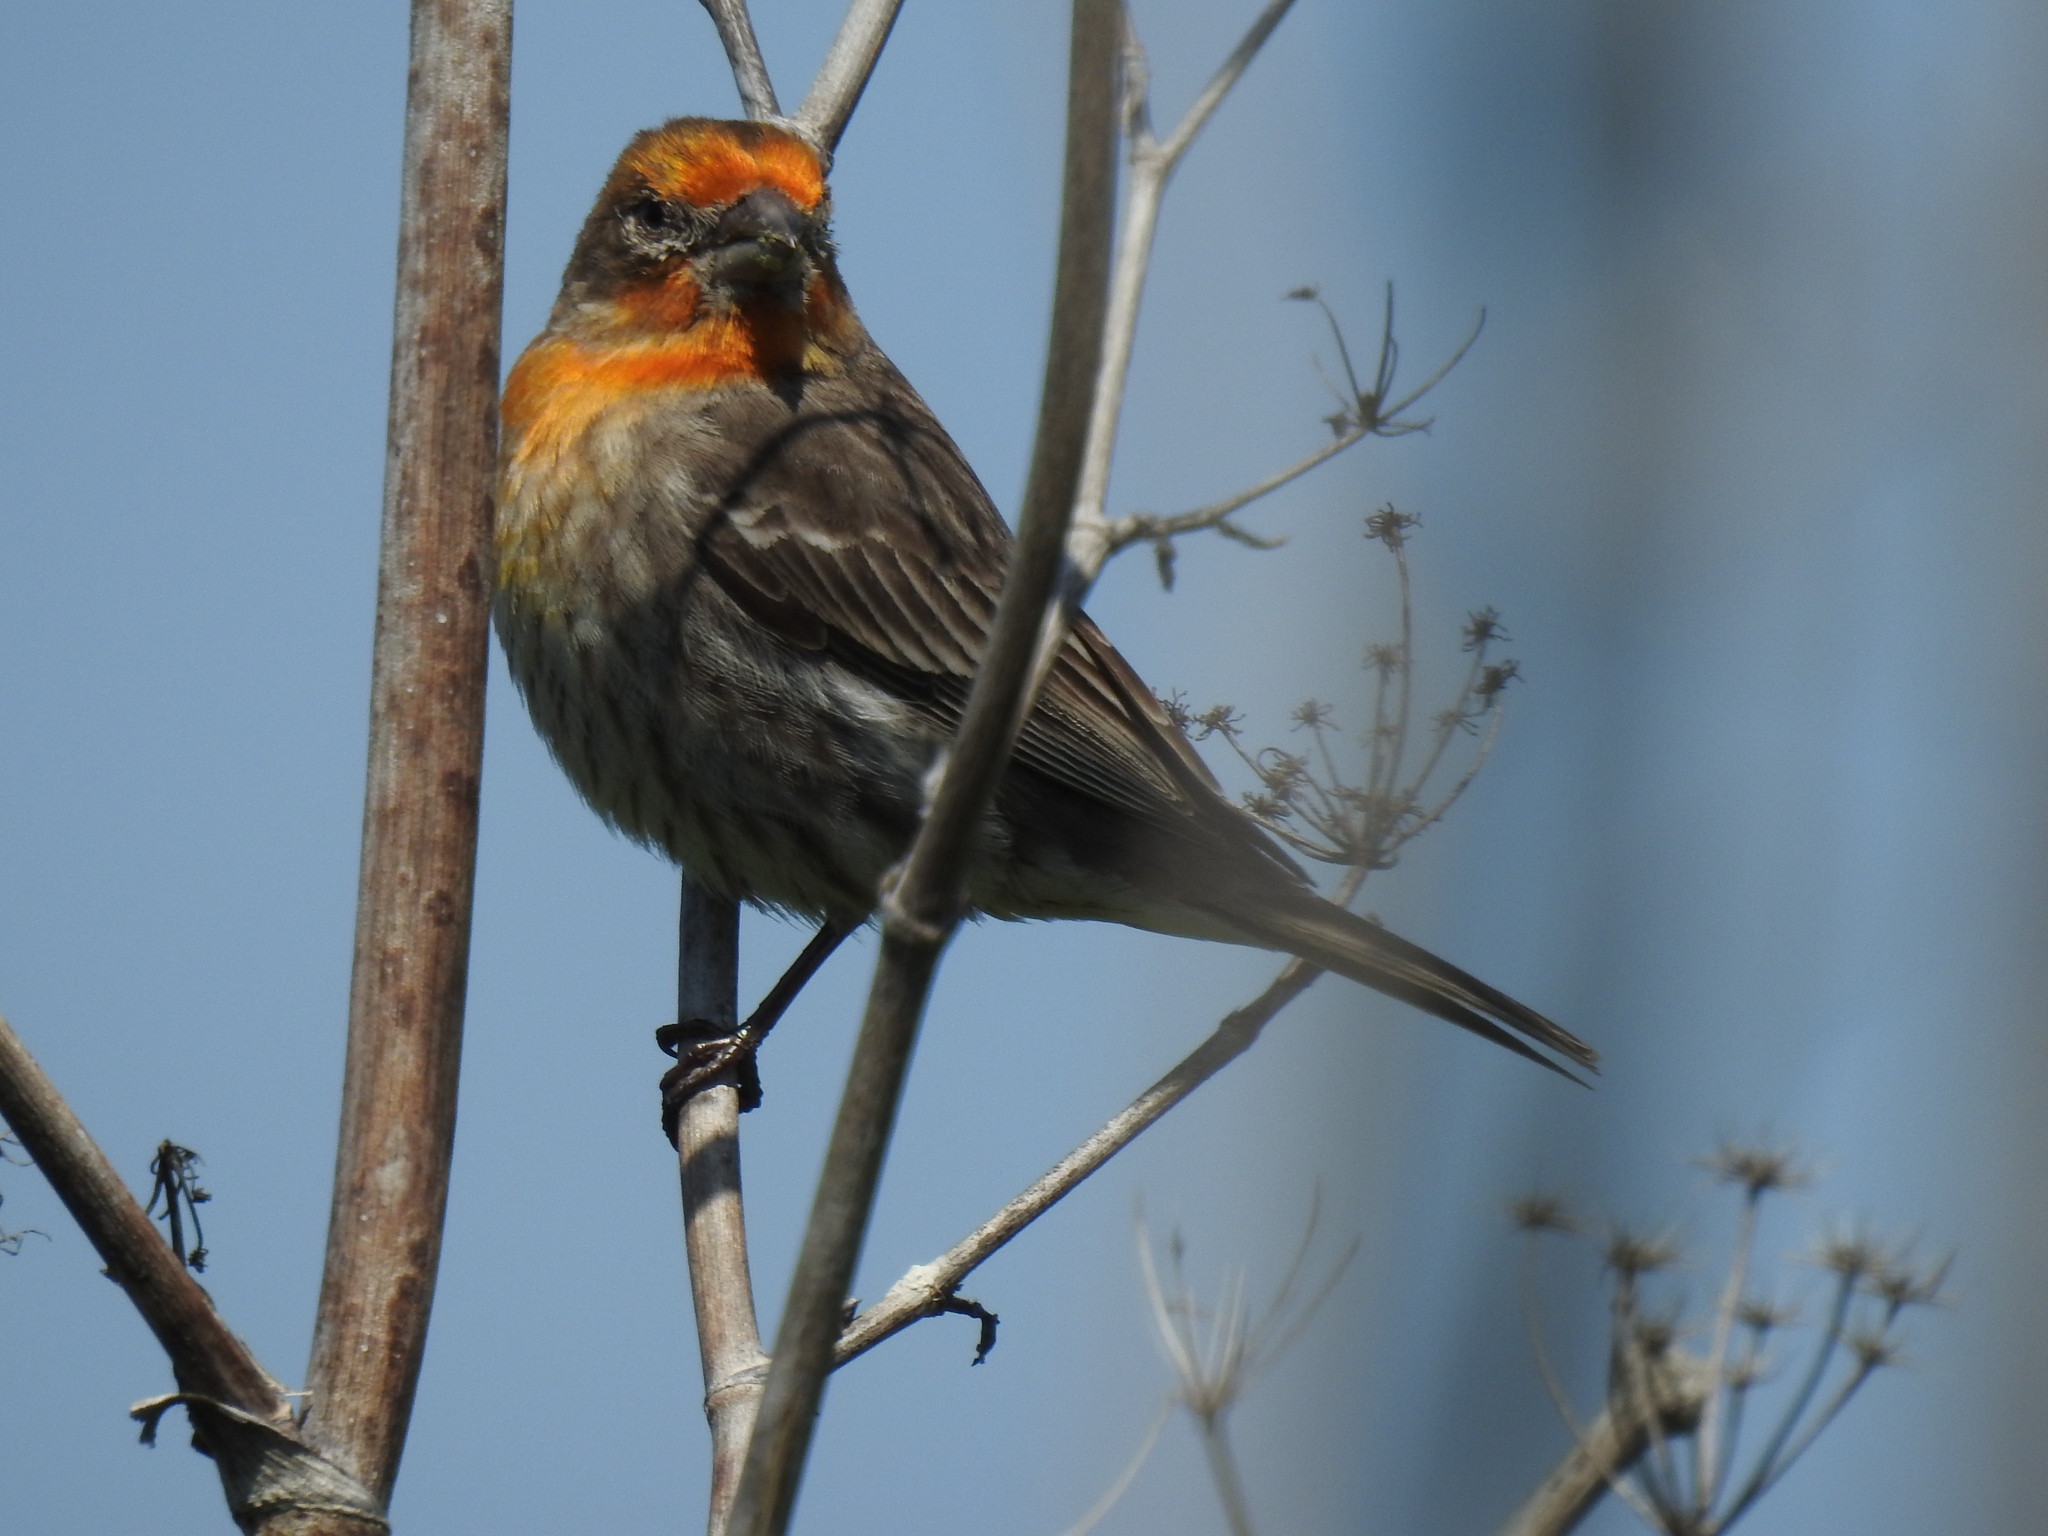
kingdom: Animalia
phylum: Chordata
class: Aves
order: Passeriformes
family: Fringillidae
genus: Haemorhous
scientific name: Haemorhous mexicanus
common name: House finch
